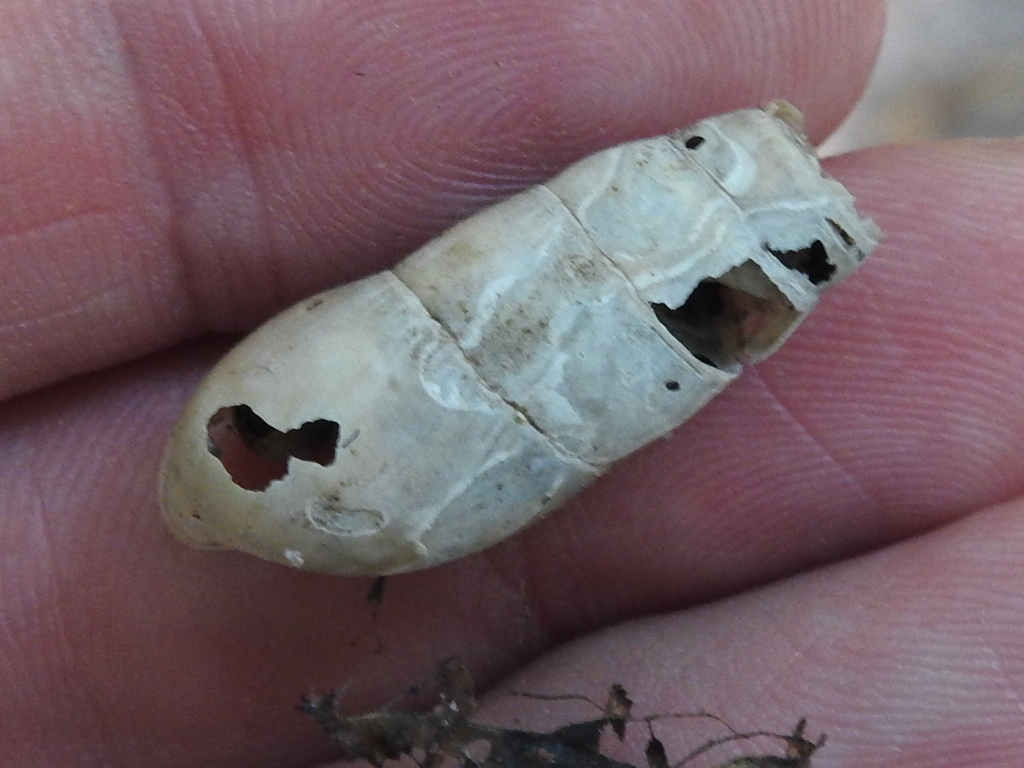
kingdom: Animalia
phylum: Mollusca
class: Gastropoda
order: Stylommatophora
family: Achatinidae
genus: Rumina
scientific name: Rumina decollata
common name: Decollate snail
